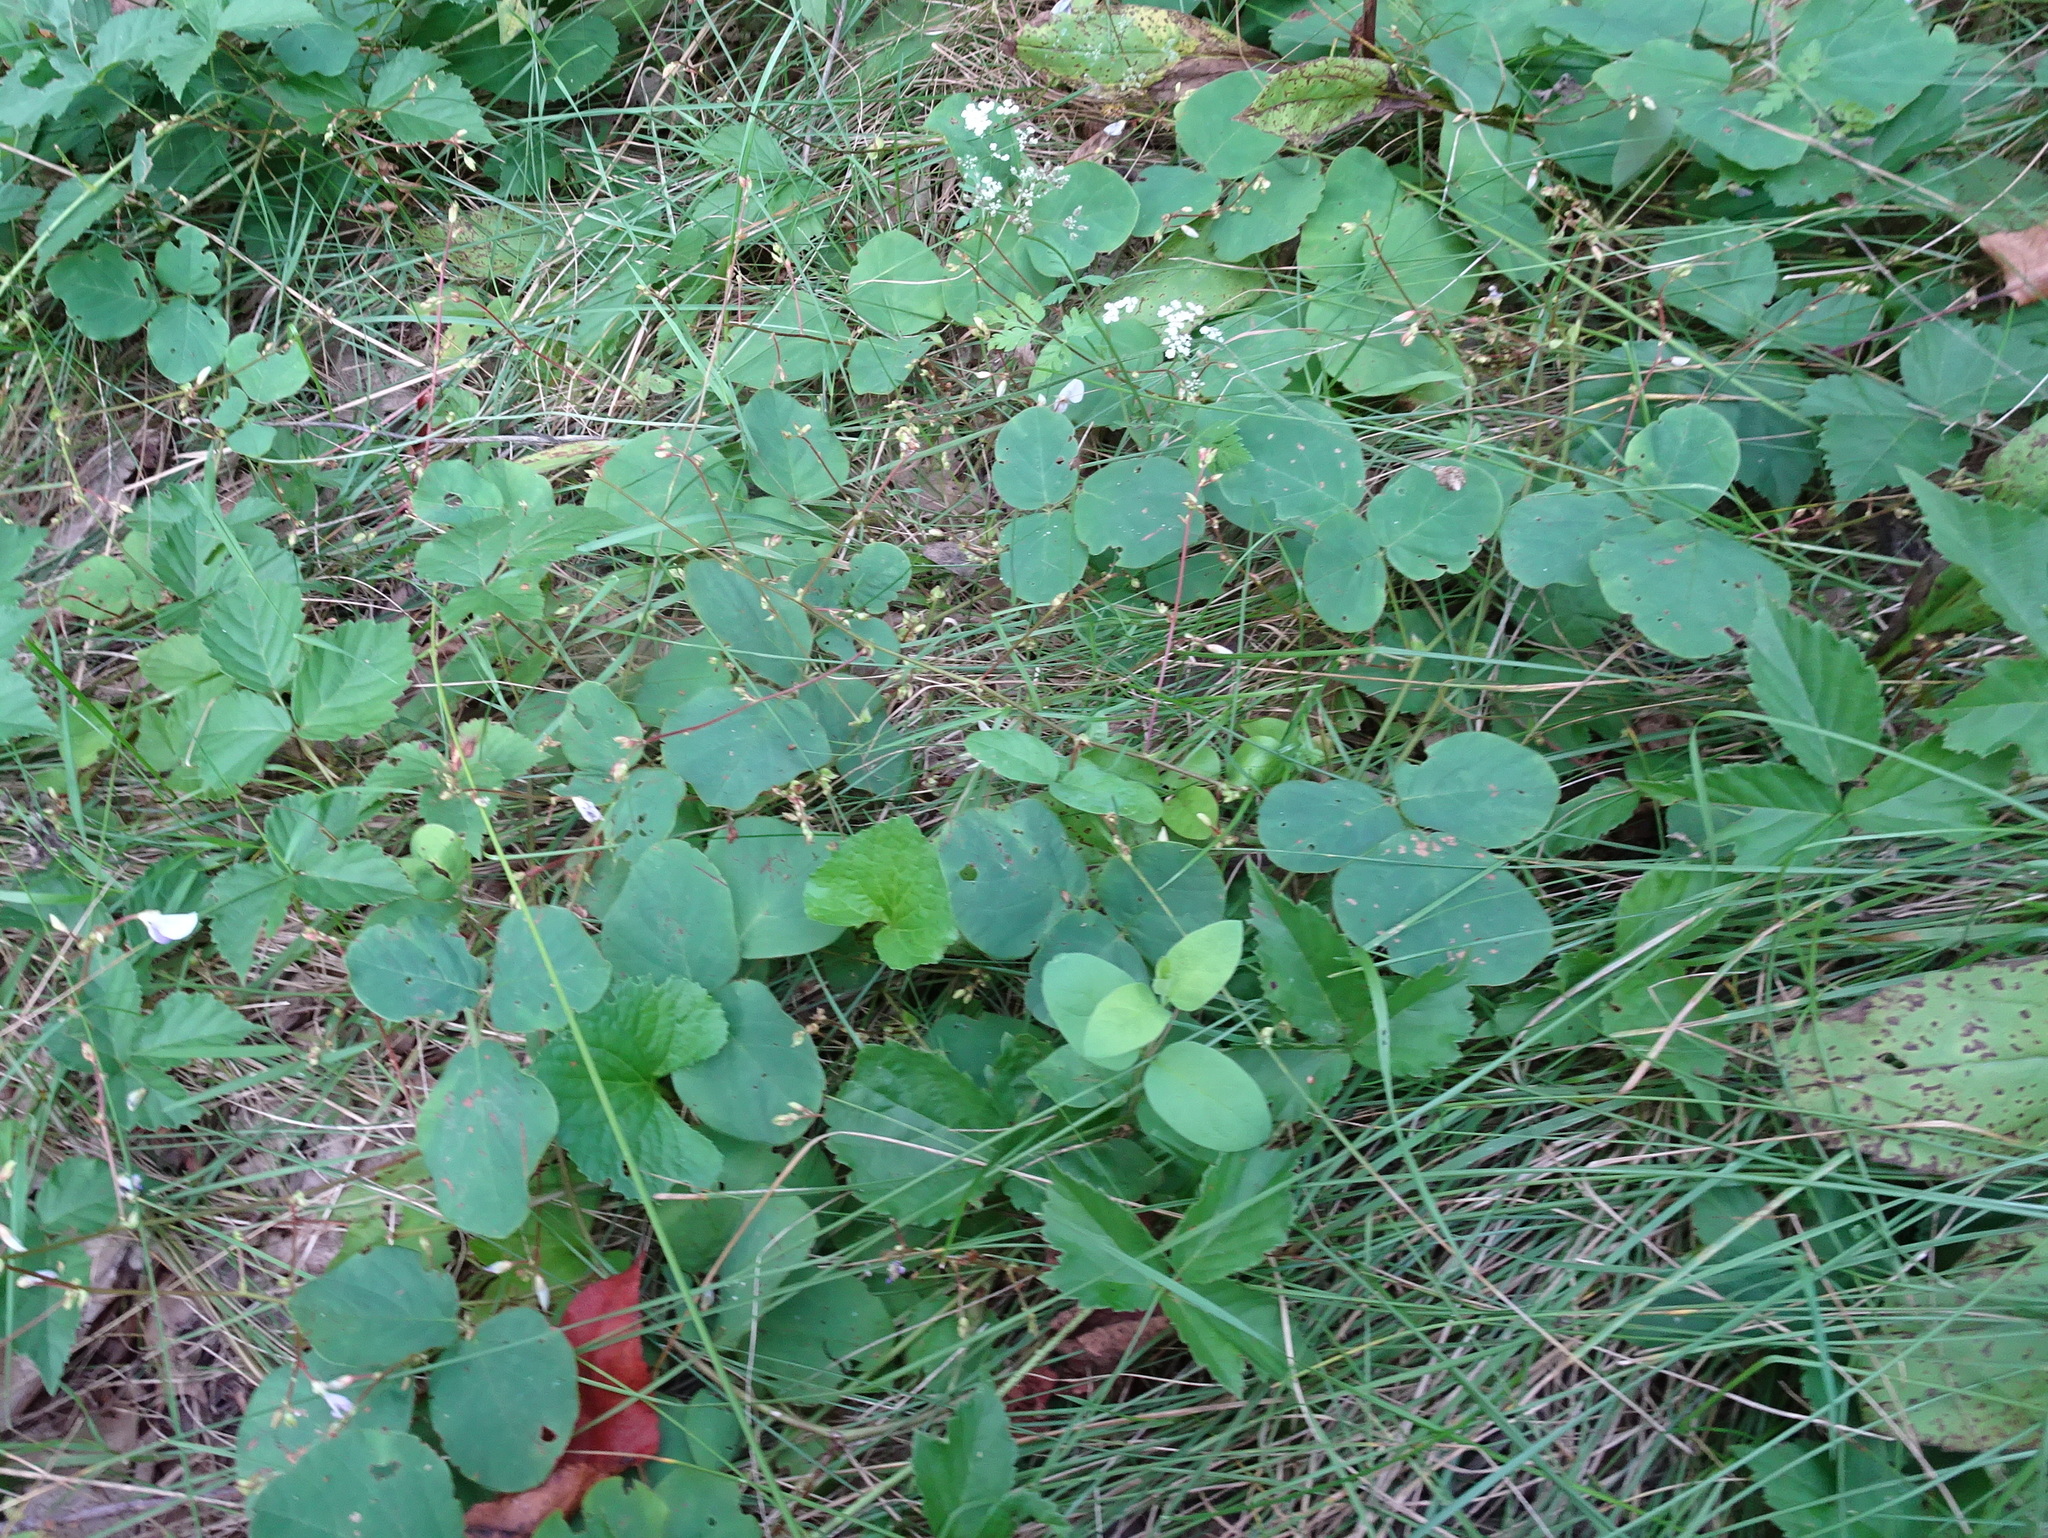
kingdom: Plantae
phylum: Tracheophyta
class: Magnoliopsida
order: Fabales
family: Fabaceae
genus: Desmodium
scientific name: Desmodium rotundifolium
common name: Dollarleaf
